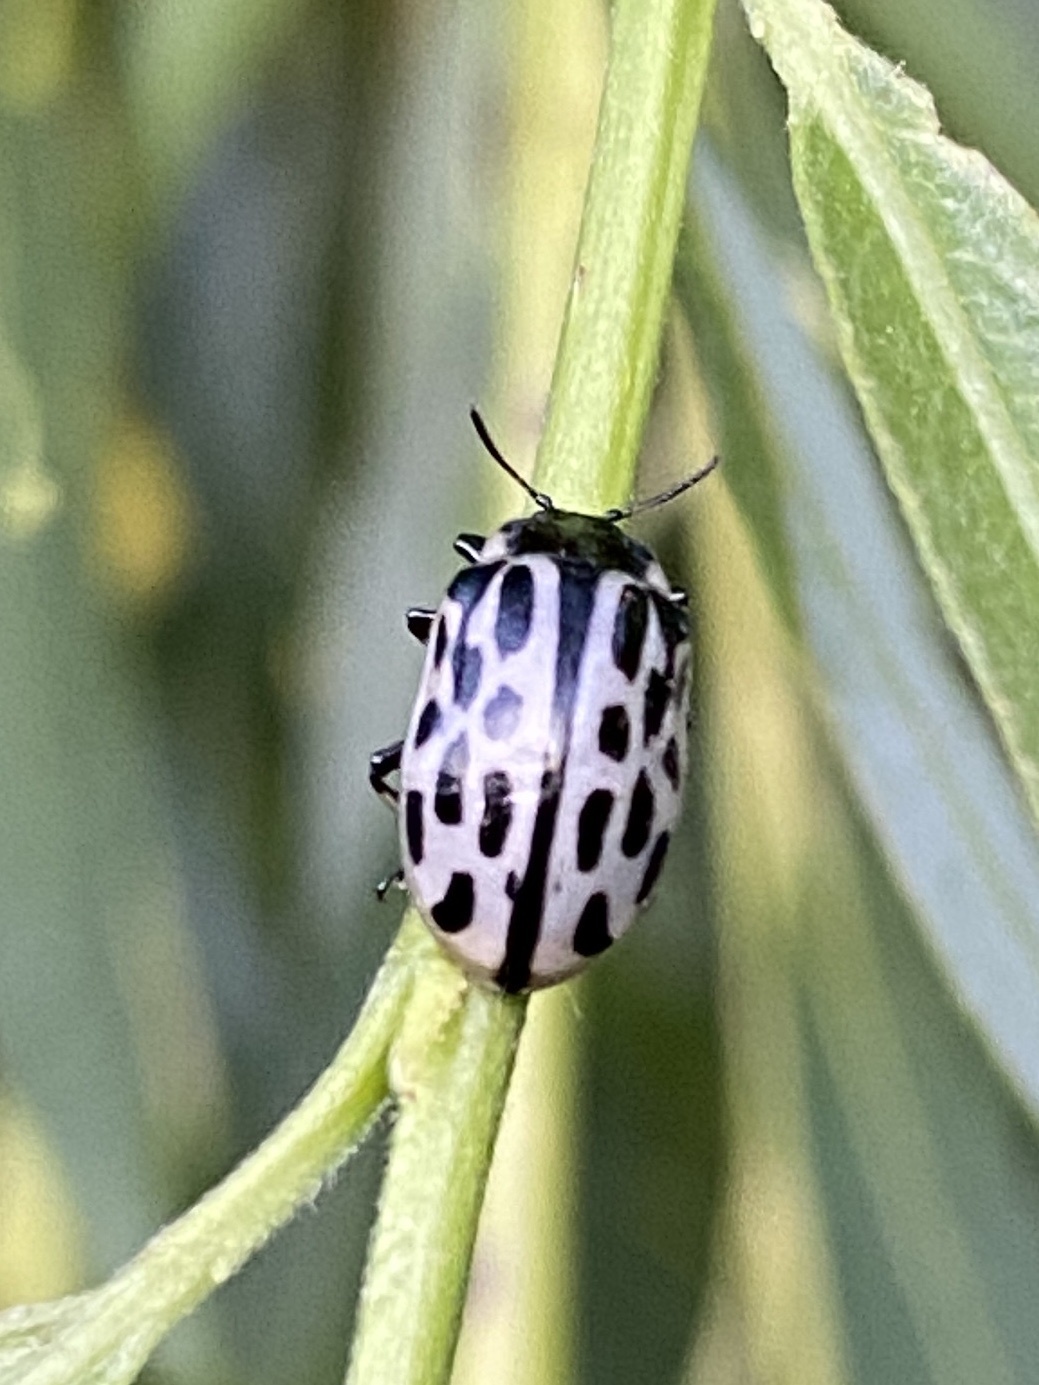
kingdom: Animalia
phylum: Arthropoda
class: Insecta
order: Coleoptera
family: Chrysomelidae
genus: Chrysomela
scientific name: Chrysomela vigintipunctata
